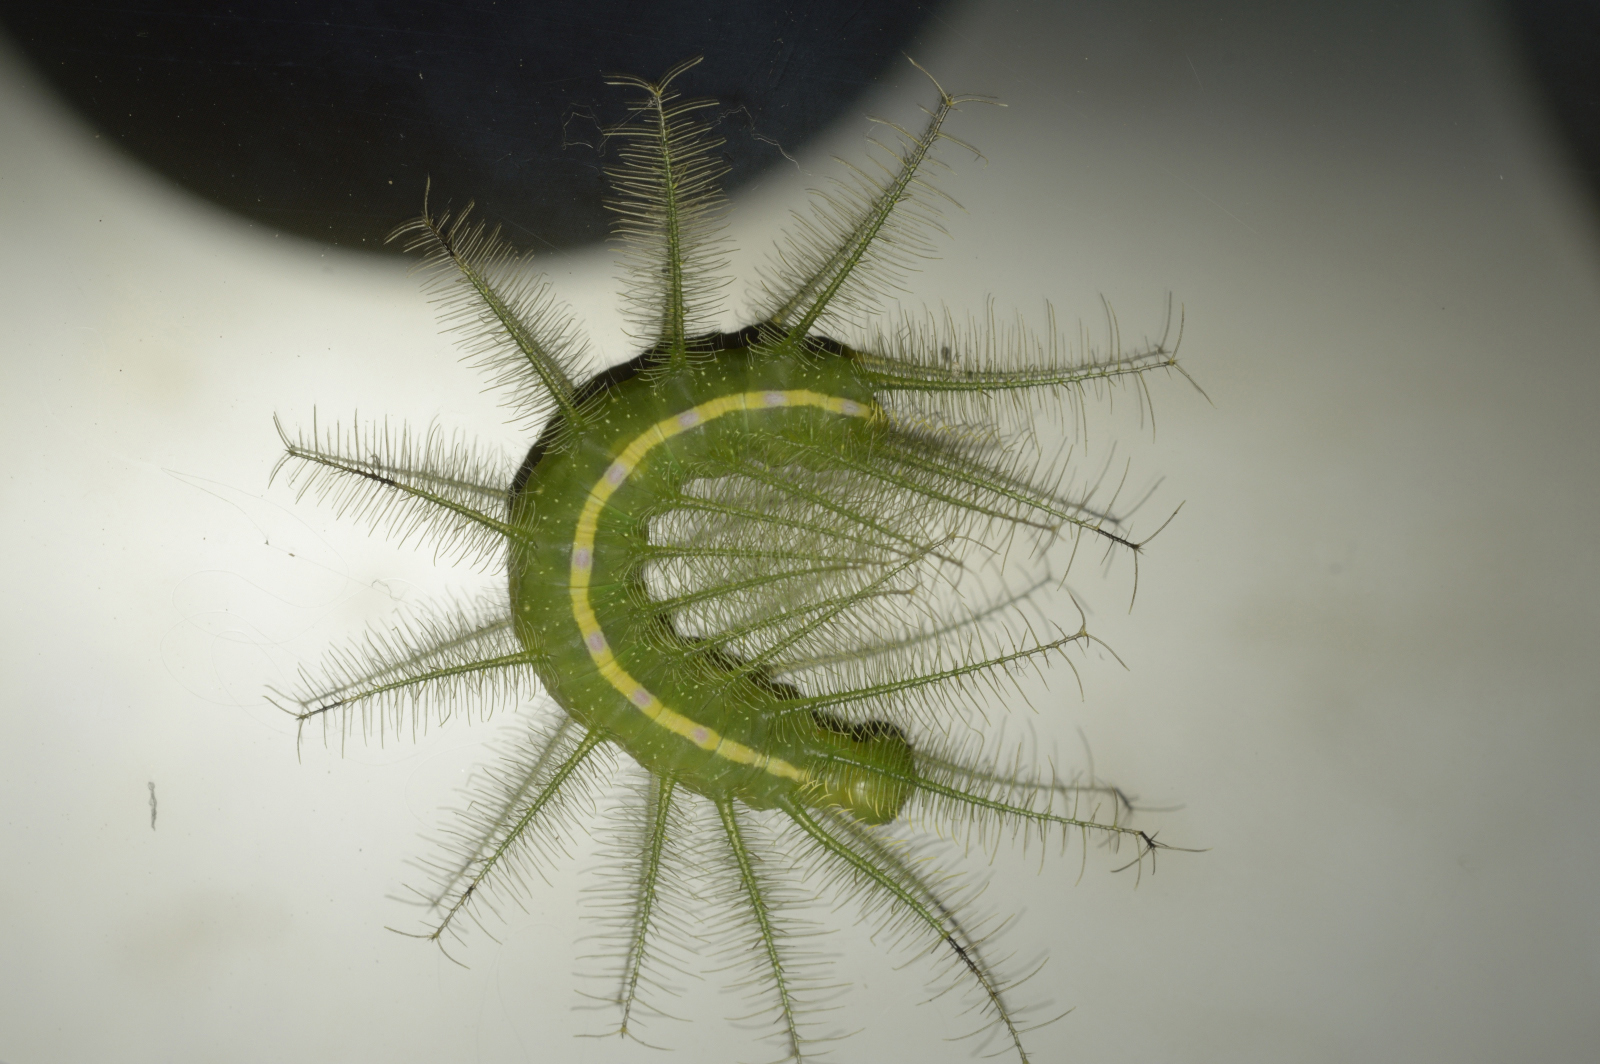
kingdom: Animalia
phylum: Arthropoda
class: Insecta
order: Lepidoptera
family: Nymphalidae
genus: Euthalia
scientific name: Euthalia aconthea
